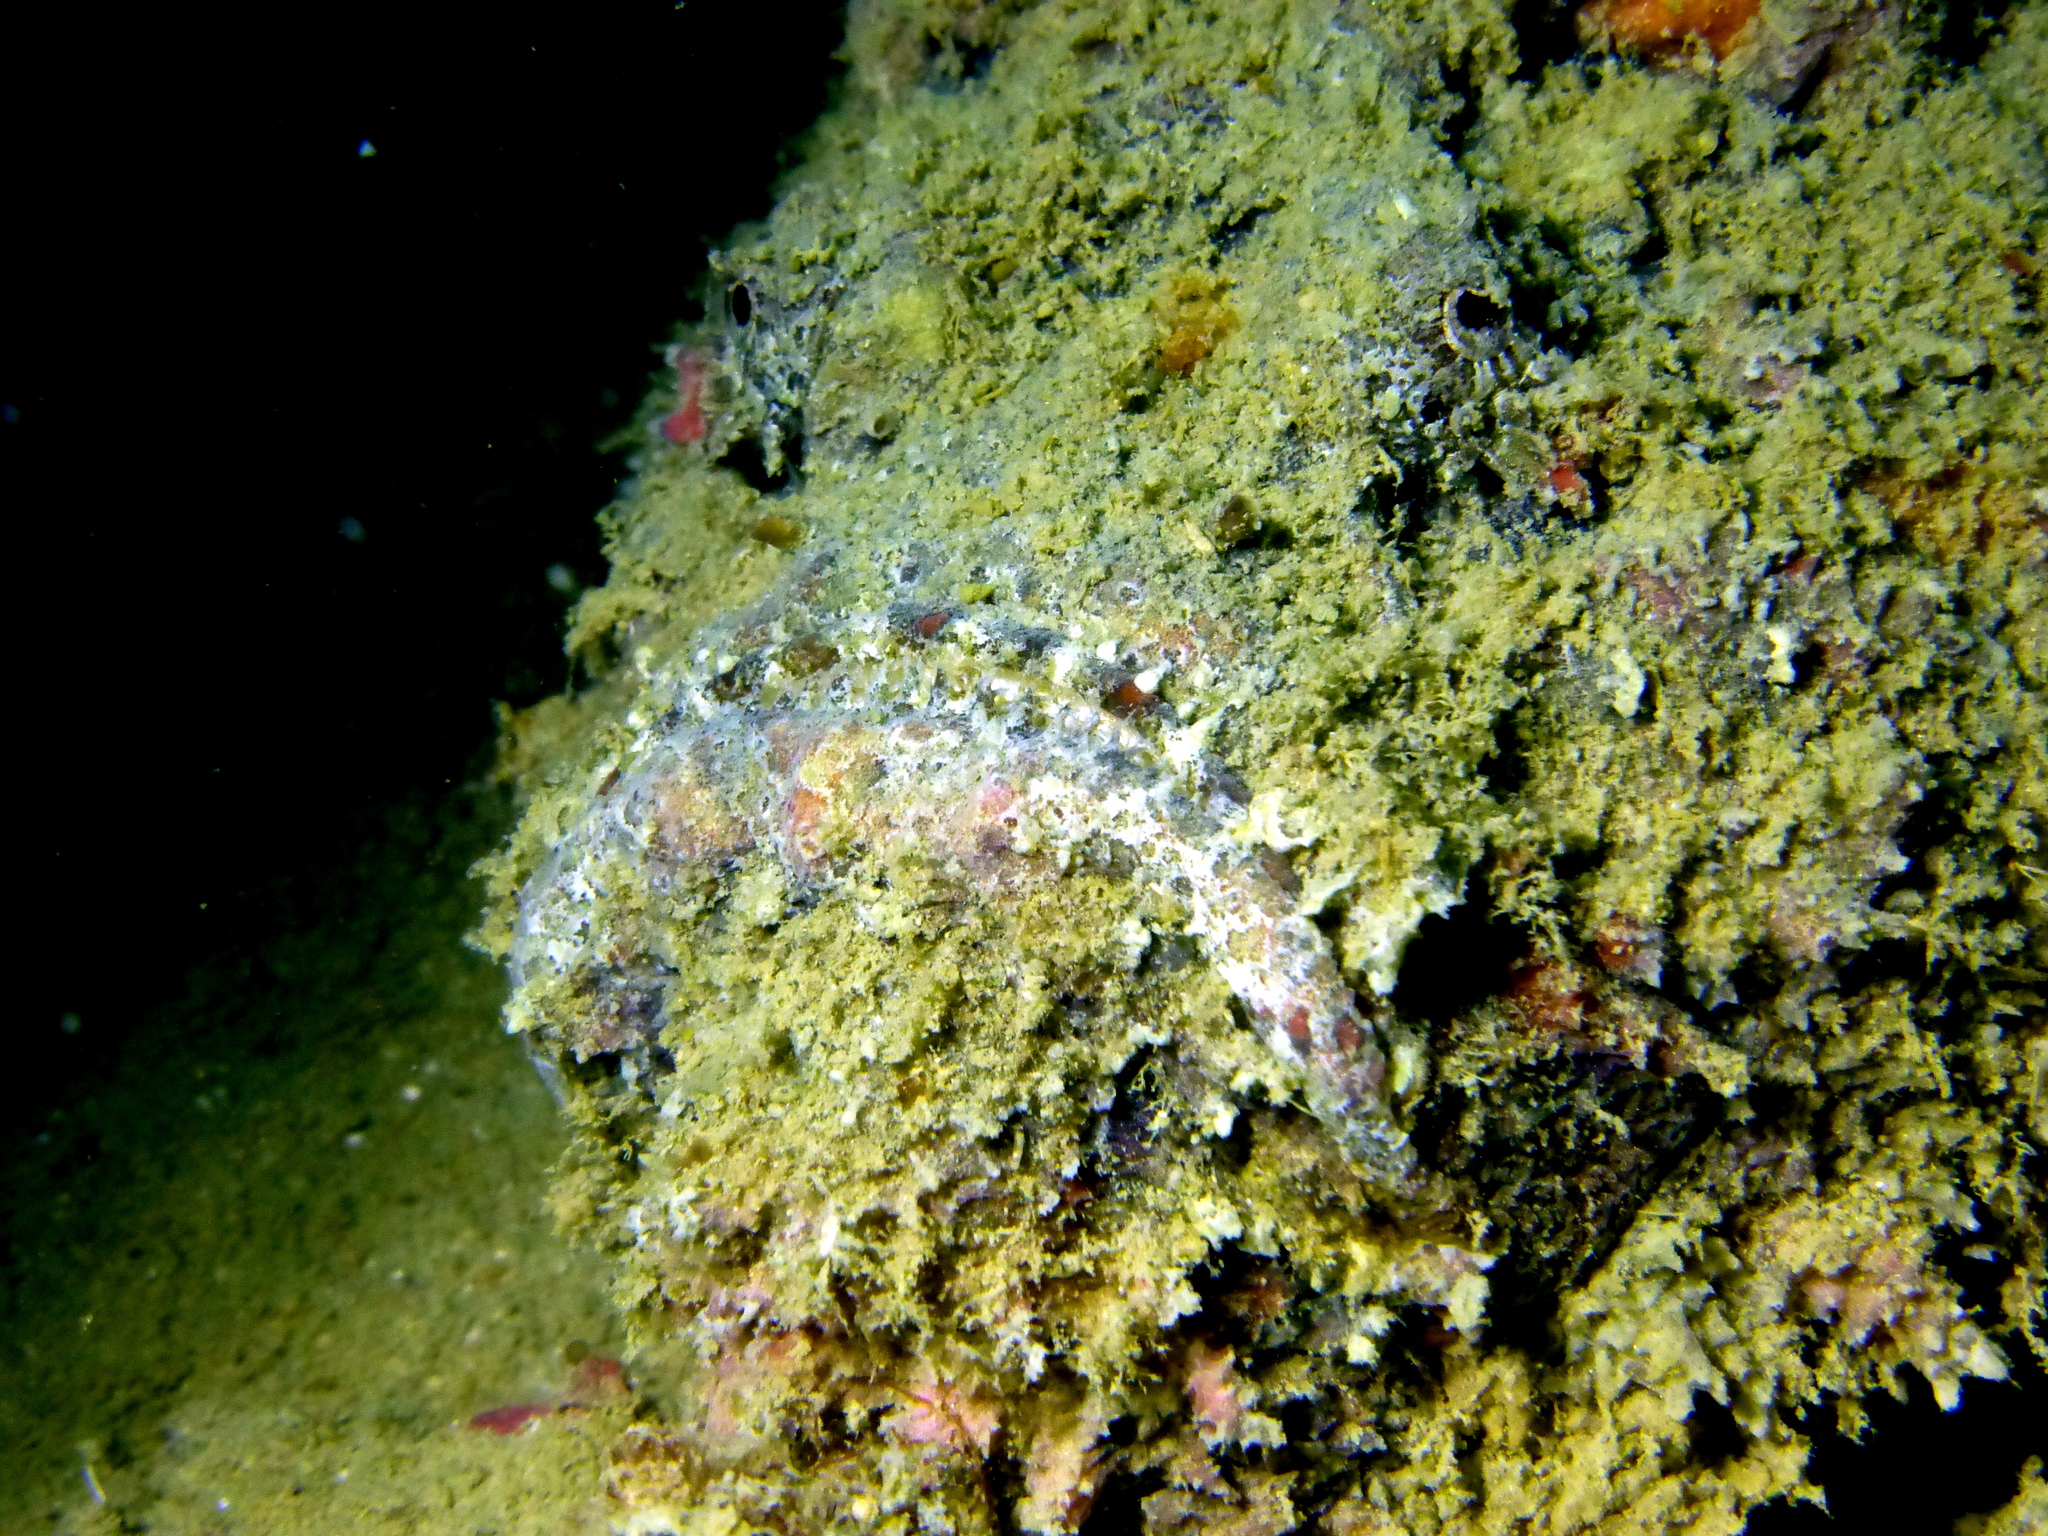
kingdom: Animalia
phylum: Chordata
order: Scorpaeniformes
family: Synanceiidae
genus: Synanceia
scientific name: Synanceia verrucosa
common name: Stonefish
